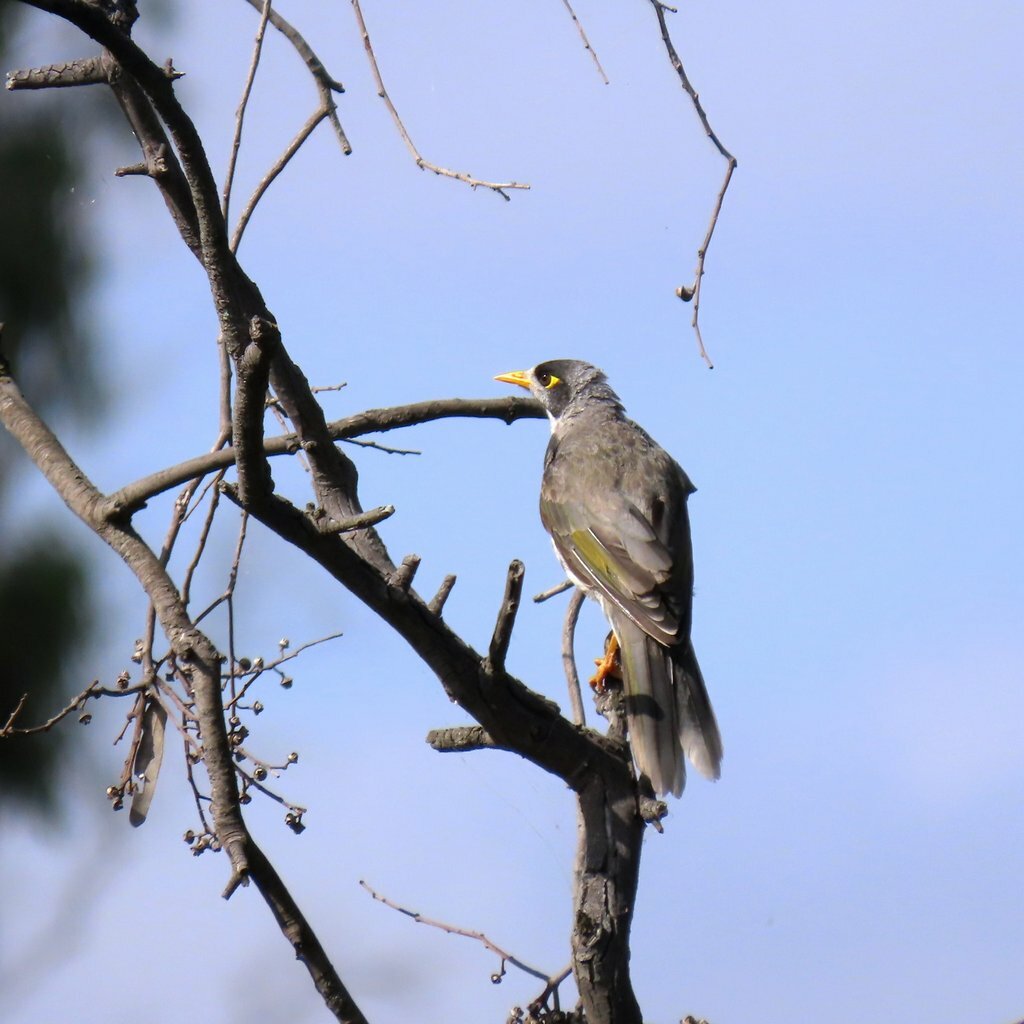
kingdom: Animalia
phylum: Chordata
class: Aves
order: Passeriformes
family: Meliphagidae
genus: Manorina
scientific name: Manorina melanocephala
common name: Noisy miner
